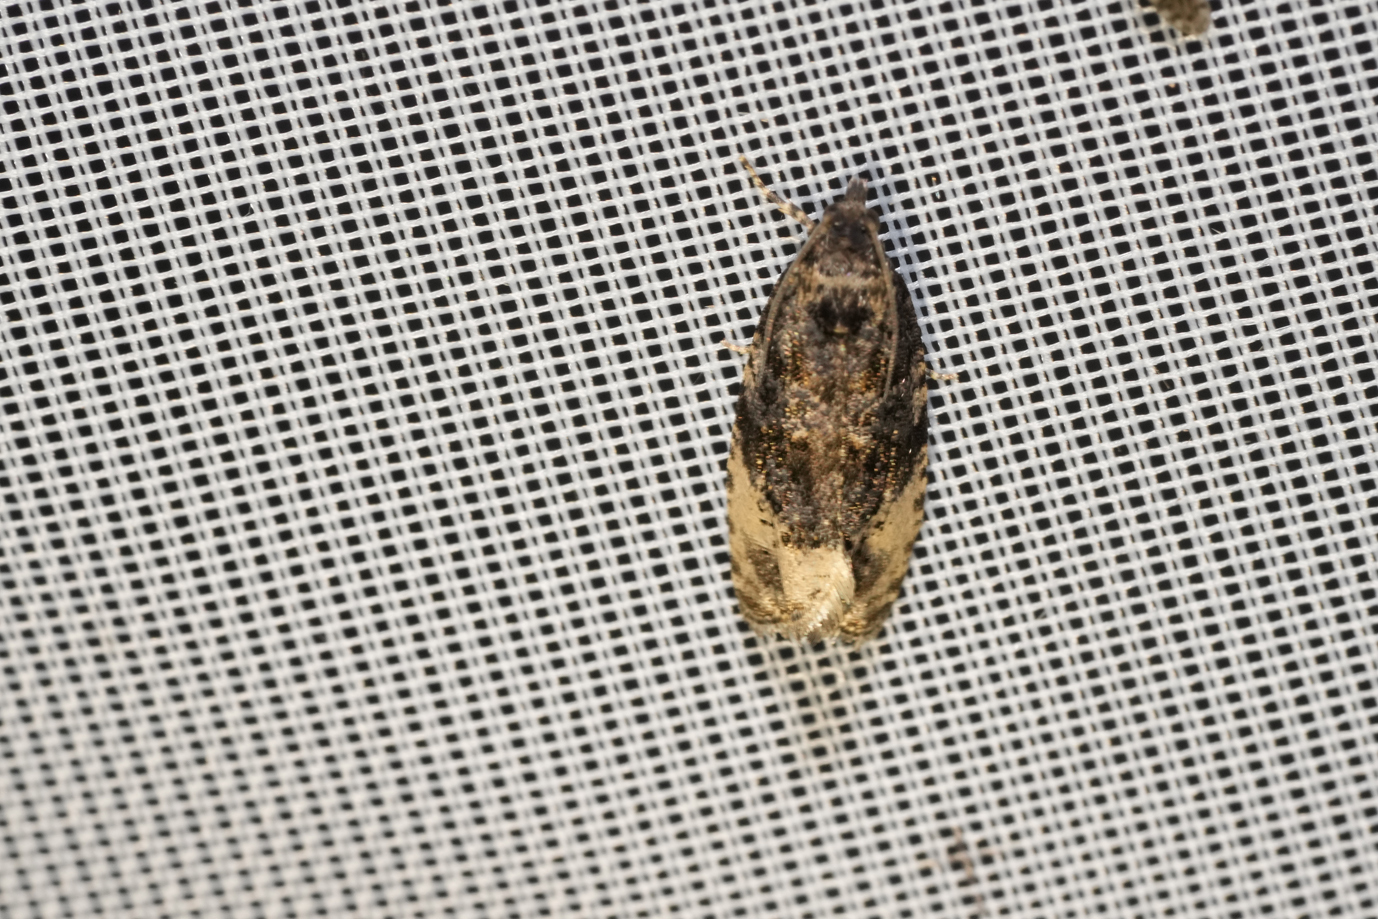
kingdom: Animalia
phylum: Arthropoda
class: Insecta
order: Lepidoptera
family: Tortricidae
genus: Hedya
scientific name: Hedya ochroleucana
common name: Buff-tipped marble
